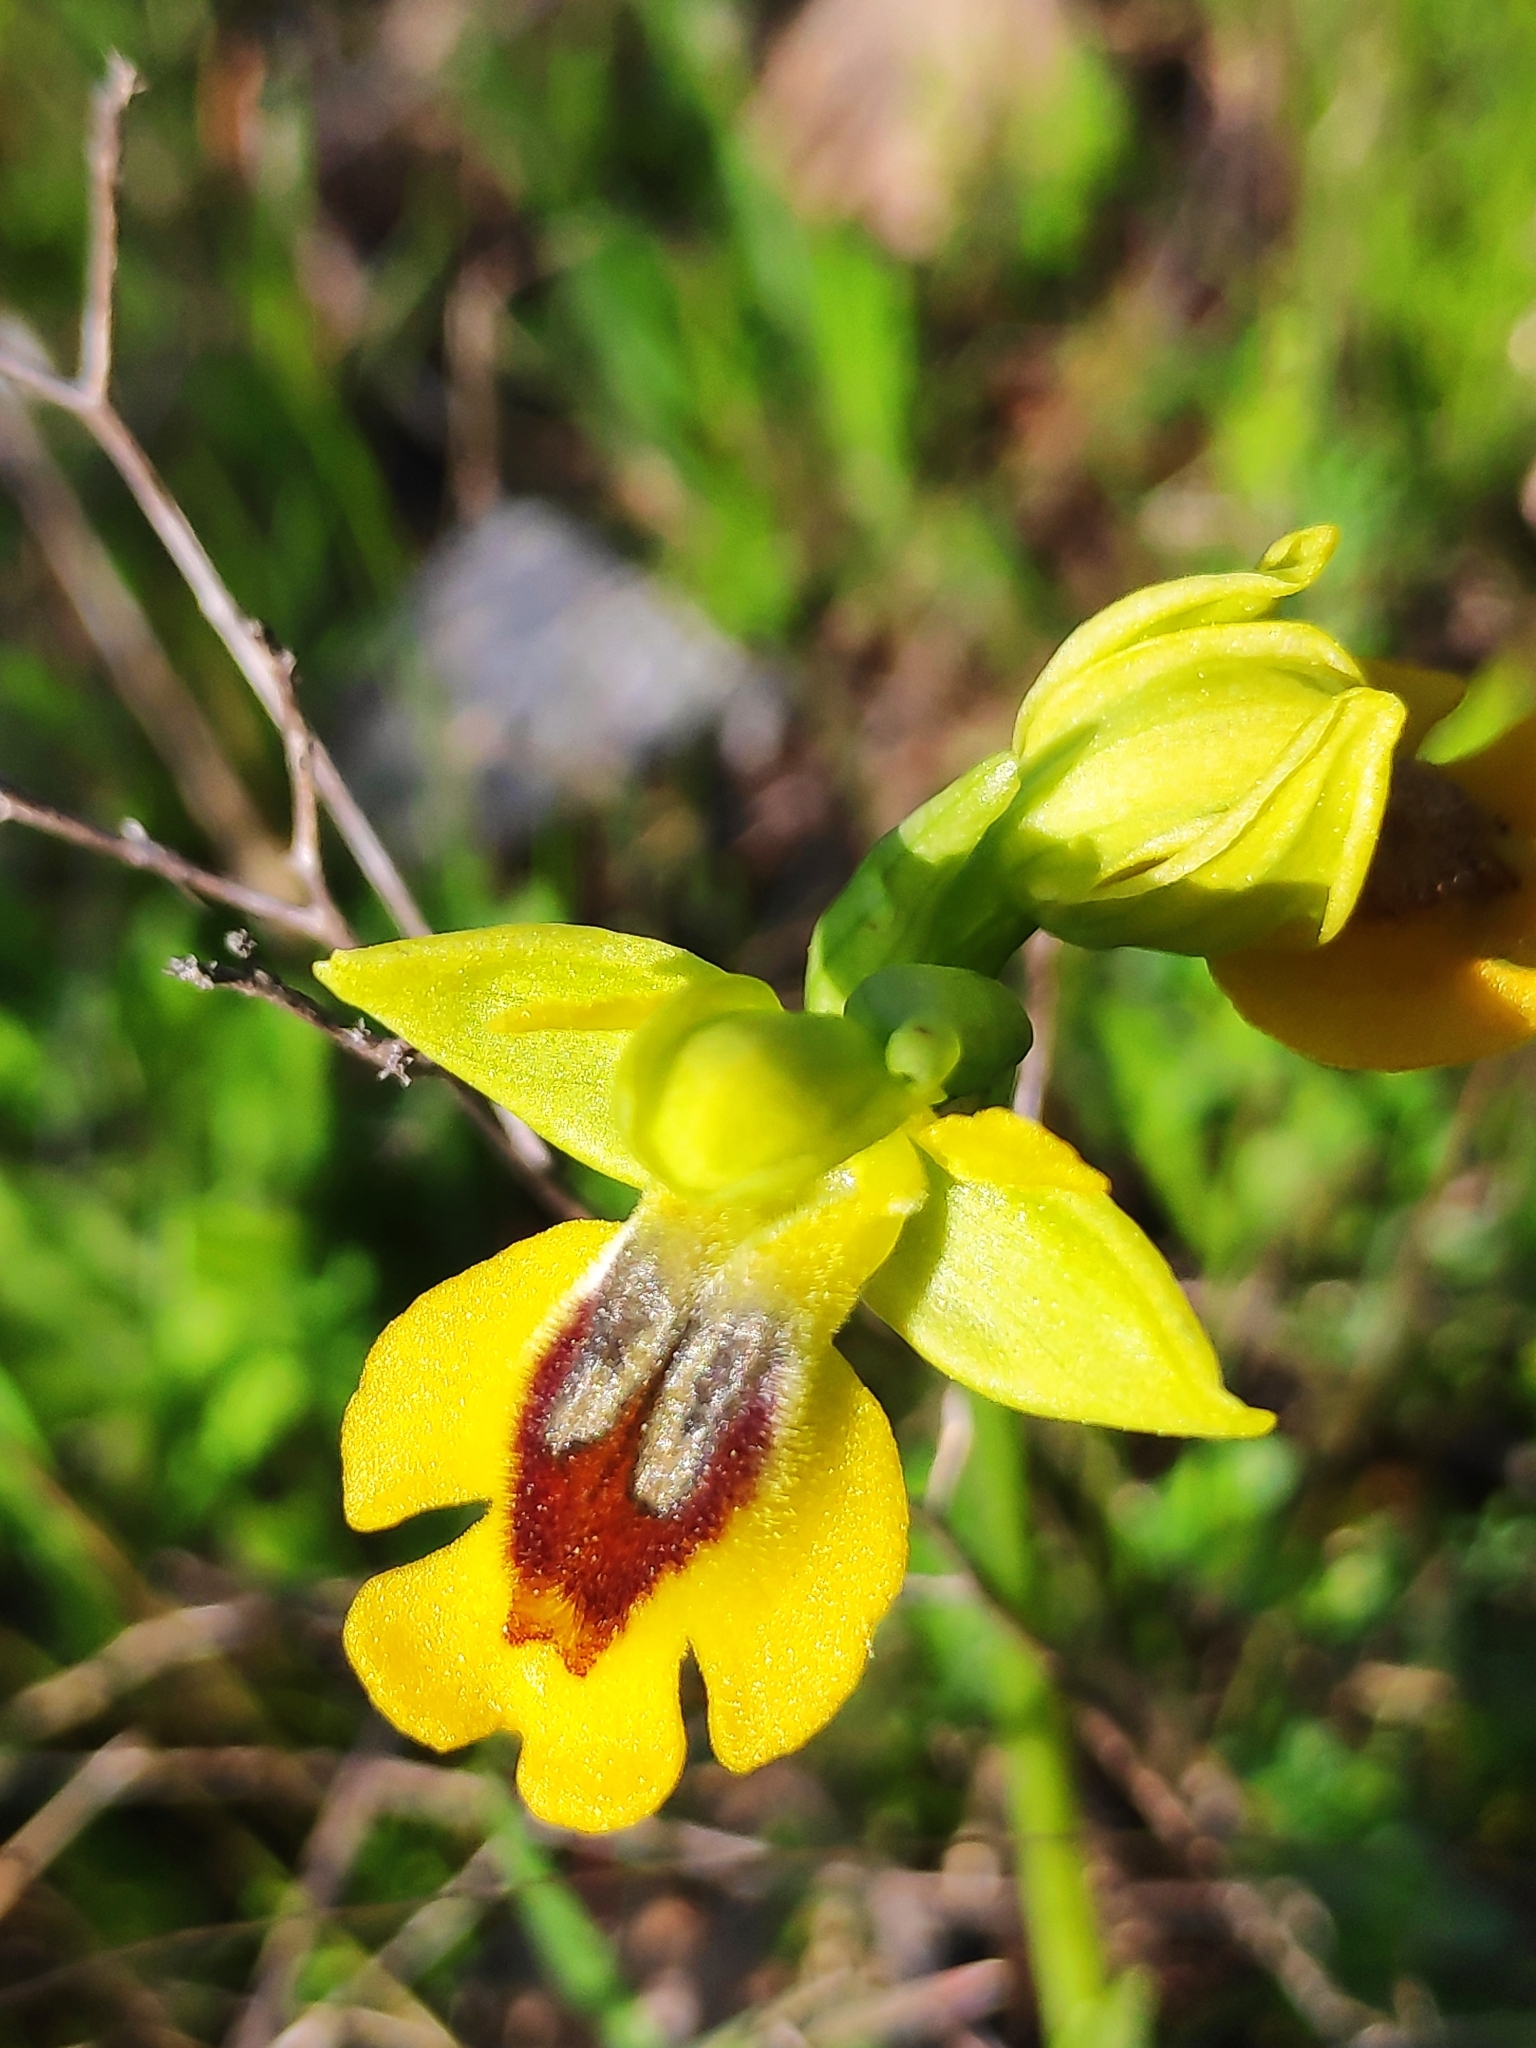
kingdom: Plantae
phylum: Tracheophyta
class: Liliopsida
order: Asparagales
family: Orchidaceae
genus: Ophrys
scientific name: Ophrys lutea
